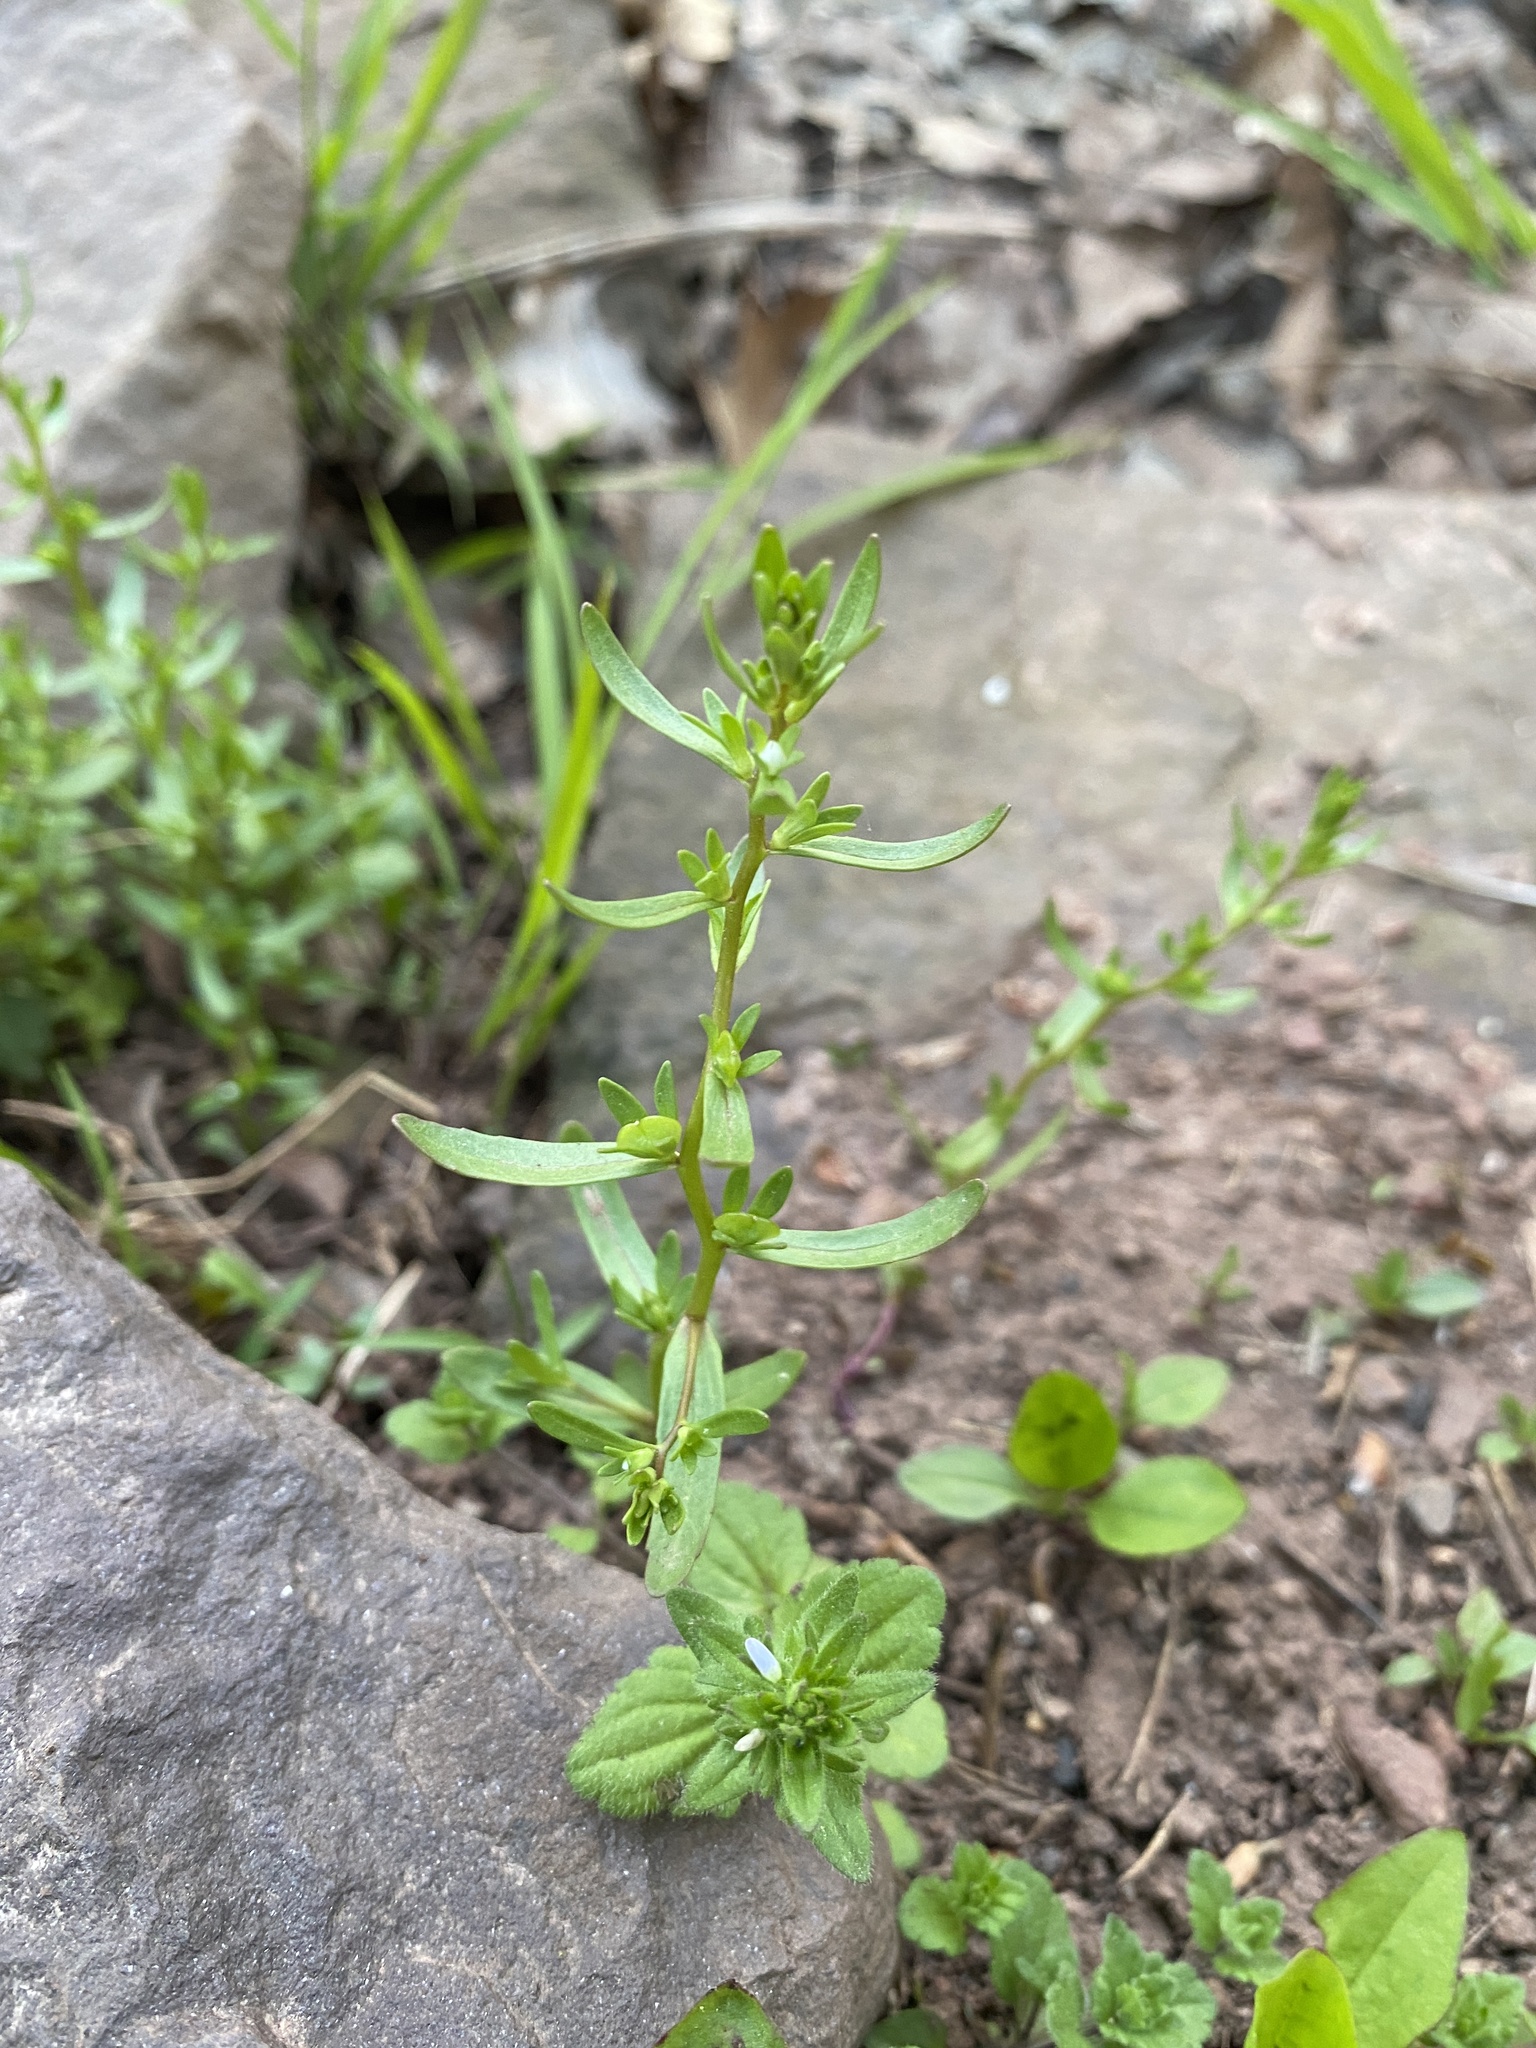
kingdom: Plantae
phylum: Tracheophyta
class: Magnoliopsida
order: Lamiales
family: Plantaginaceae
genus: Veronica
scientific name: Veronica peregrina
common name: Neckweed
